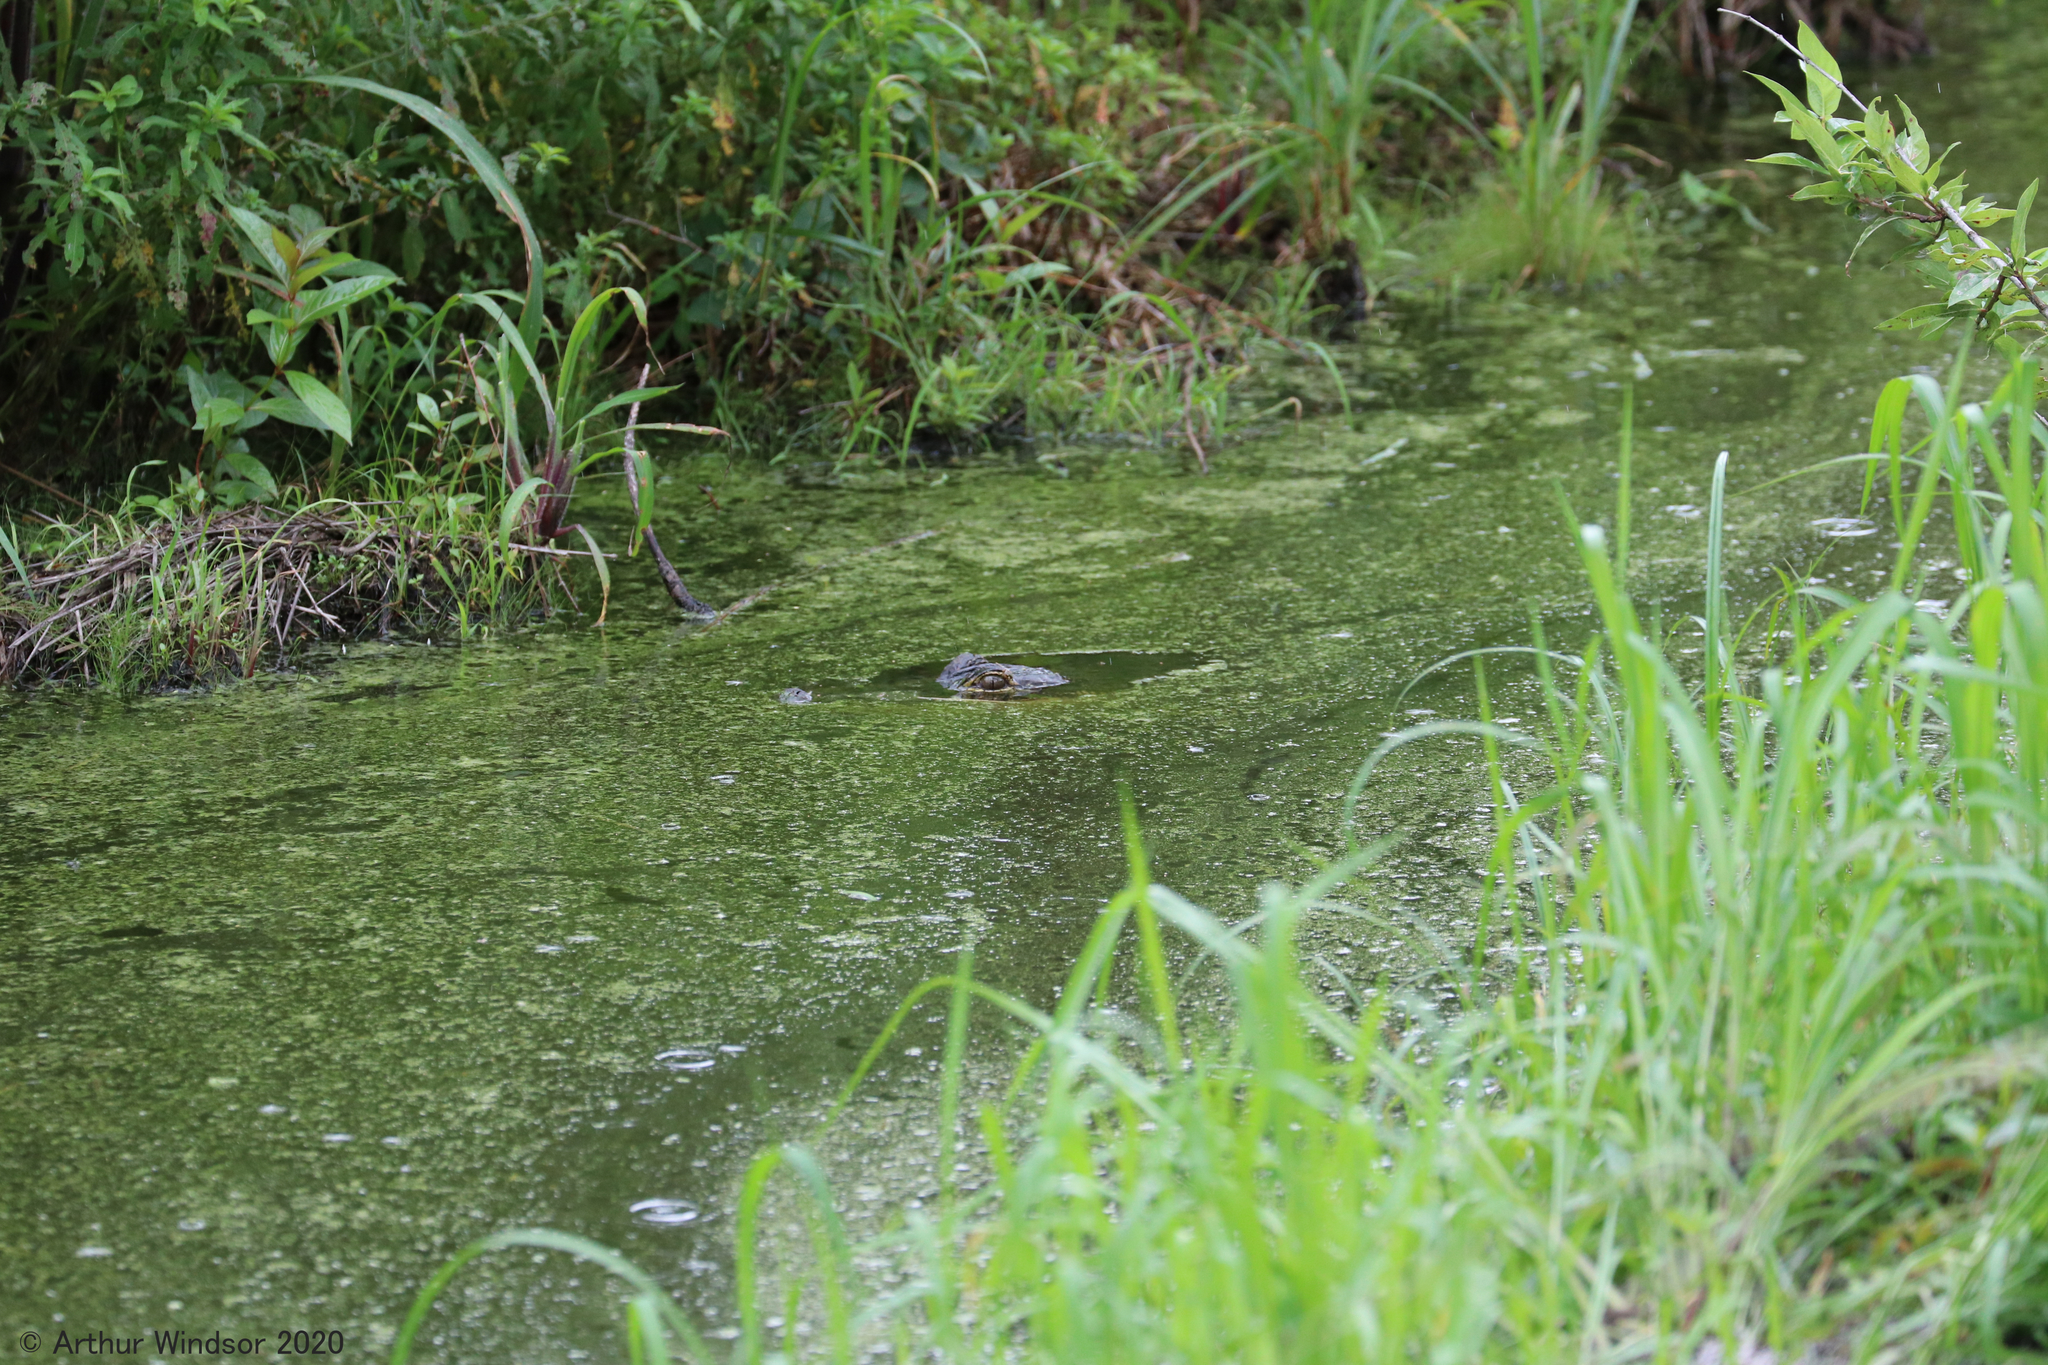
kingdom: Animalia
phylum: Chordata
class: Crocodylia
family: Alligatoridae
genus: Alligator
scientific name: Alligator mississippiensis
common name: American alligator
